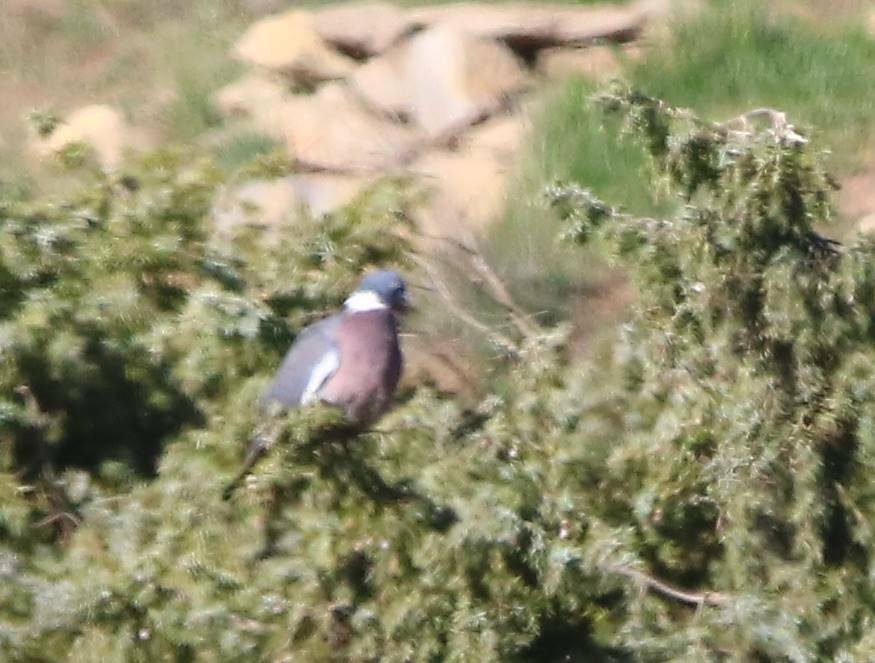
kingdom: Animalia
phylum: Chordata
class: Aves
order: Columbiformes
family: Columbidae
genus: Columba
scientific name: Columba palumbus
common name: Common wood pigeon
